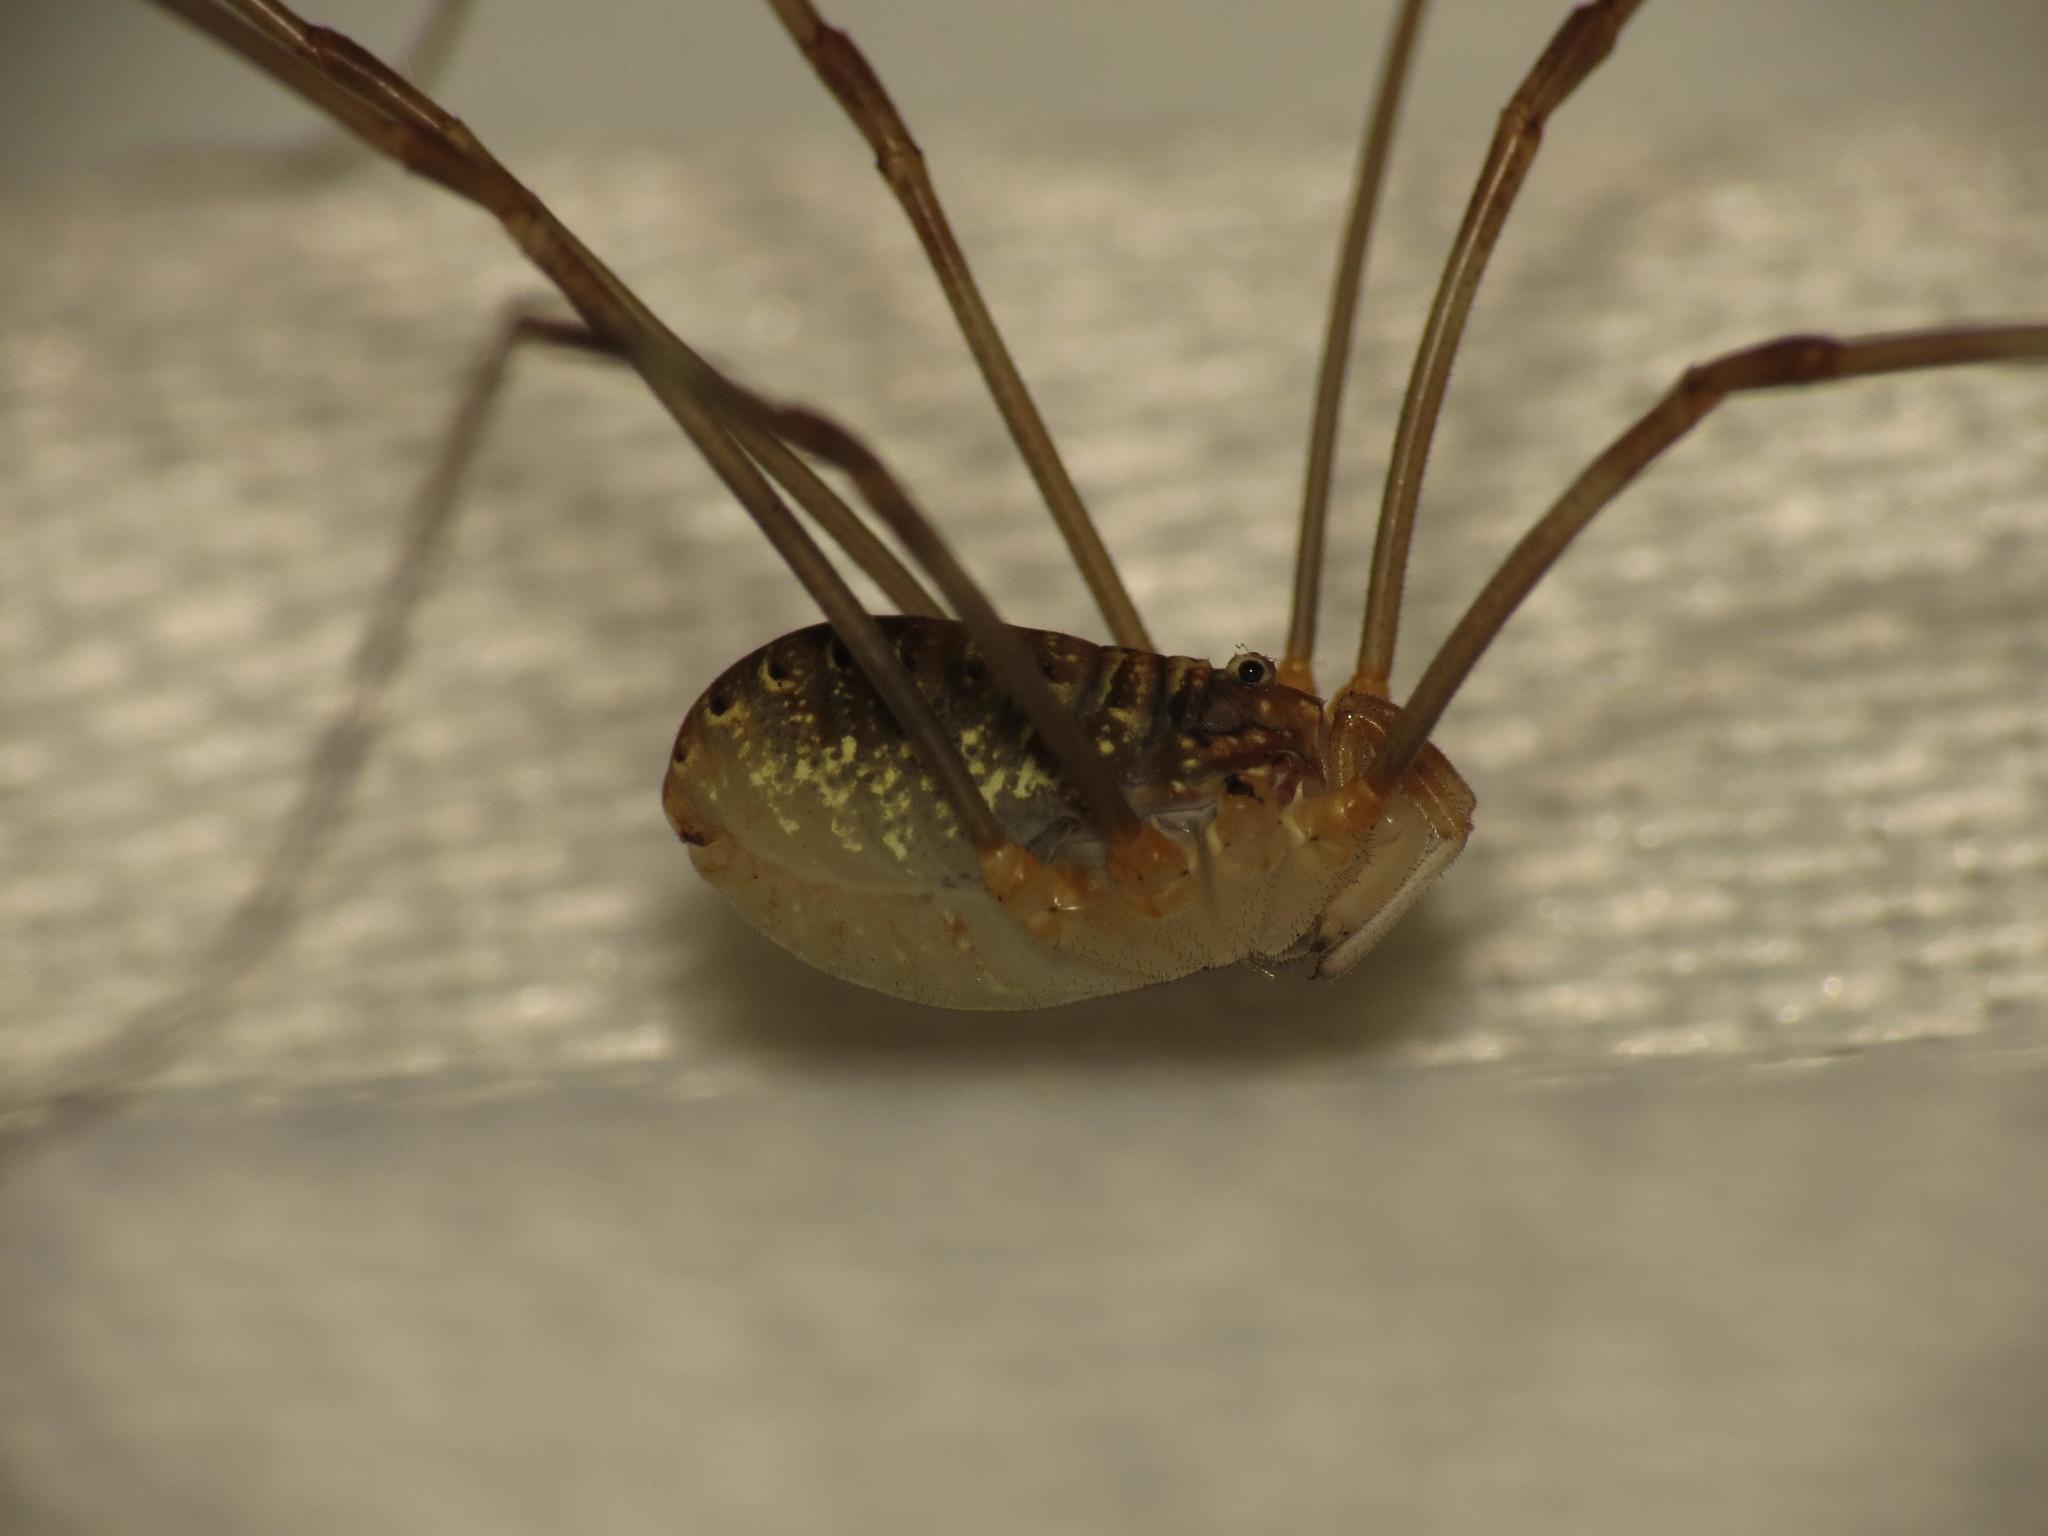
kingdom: Animalia
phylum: Arthropoda
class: Arachnida
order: Opiliones
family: Phalangiidae
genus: Opilio
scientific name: Opilio canestrinii
